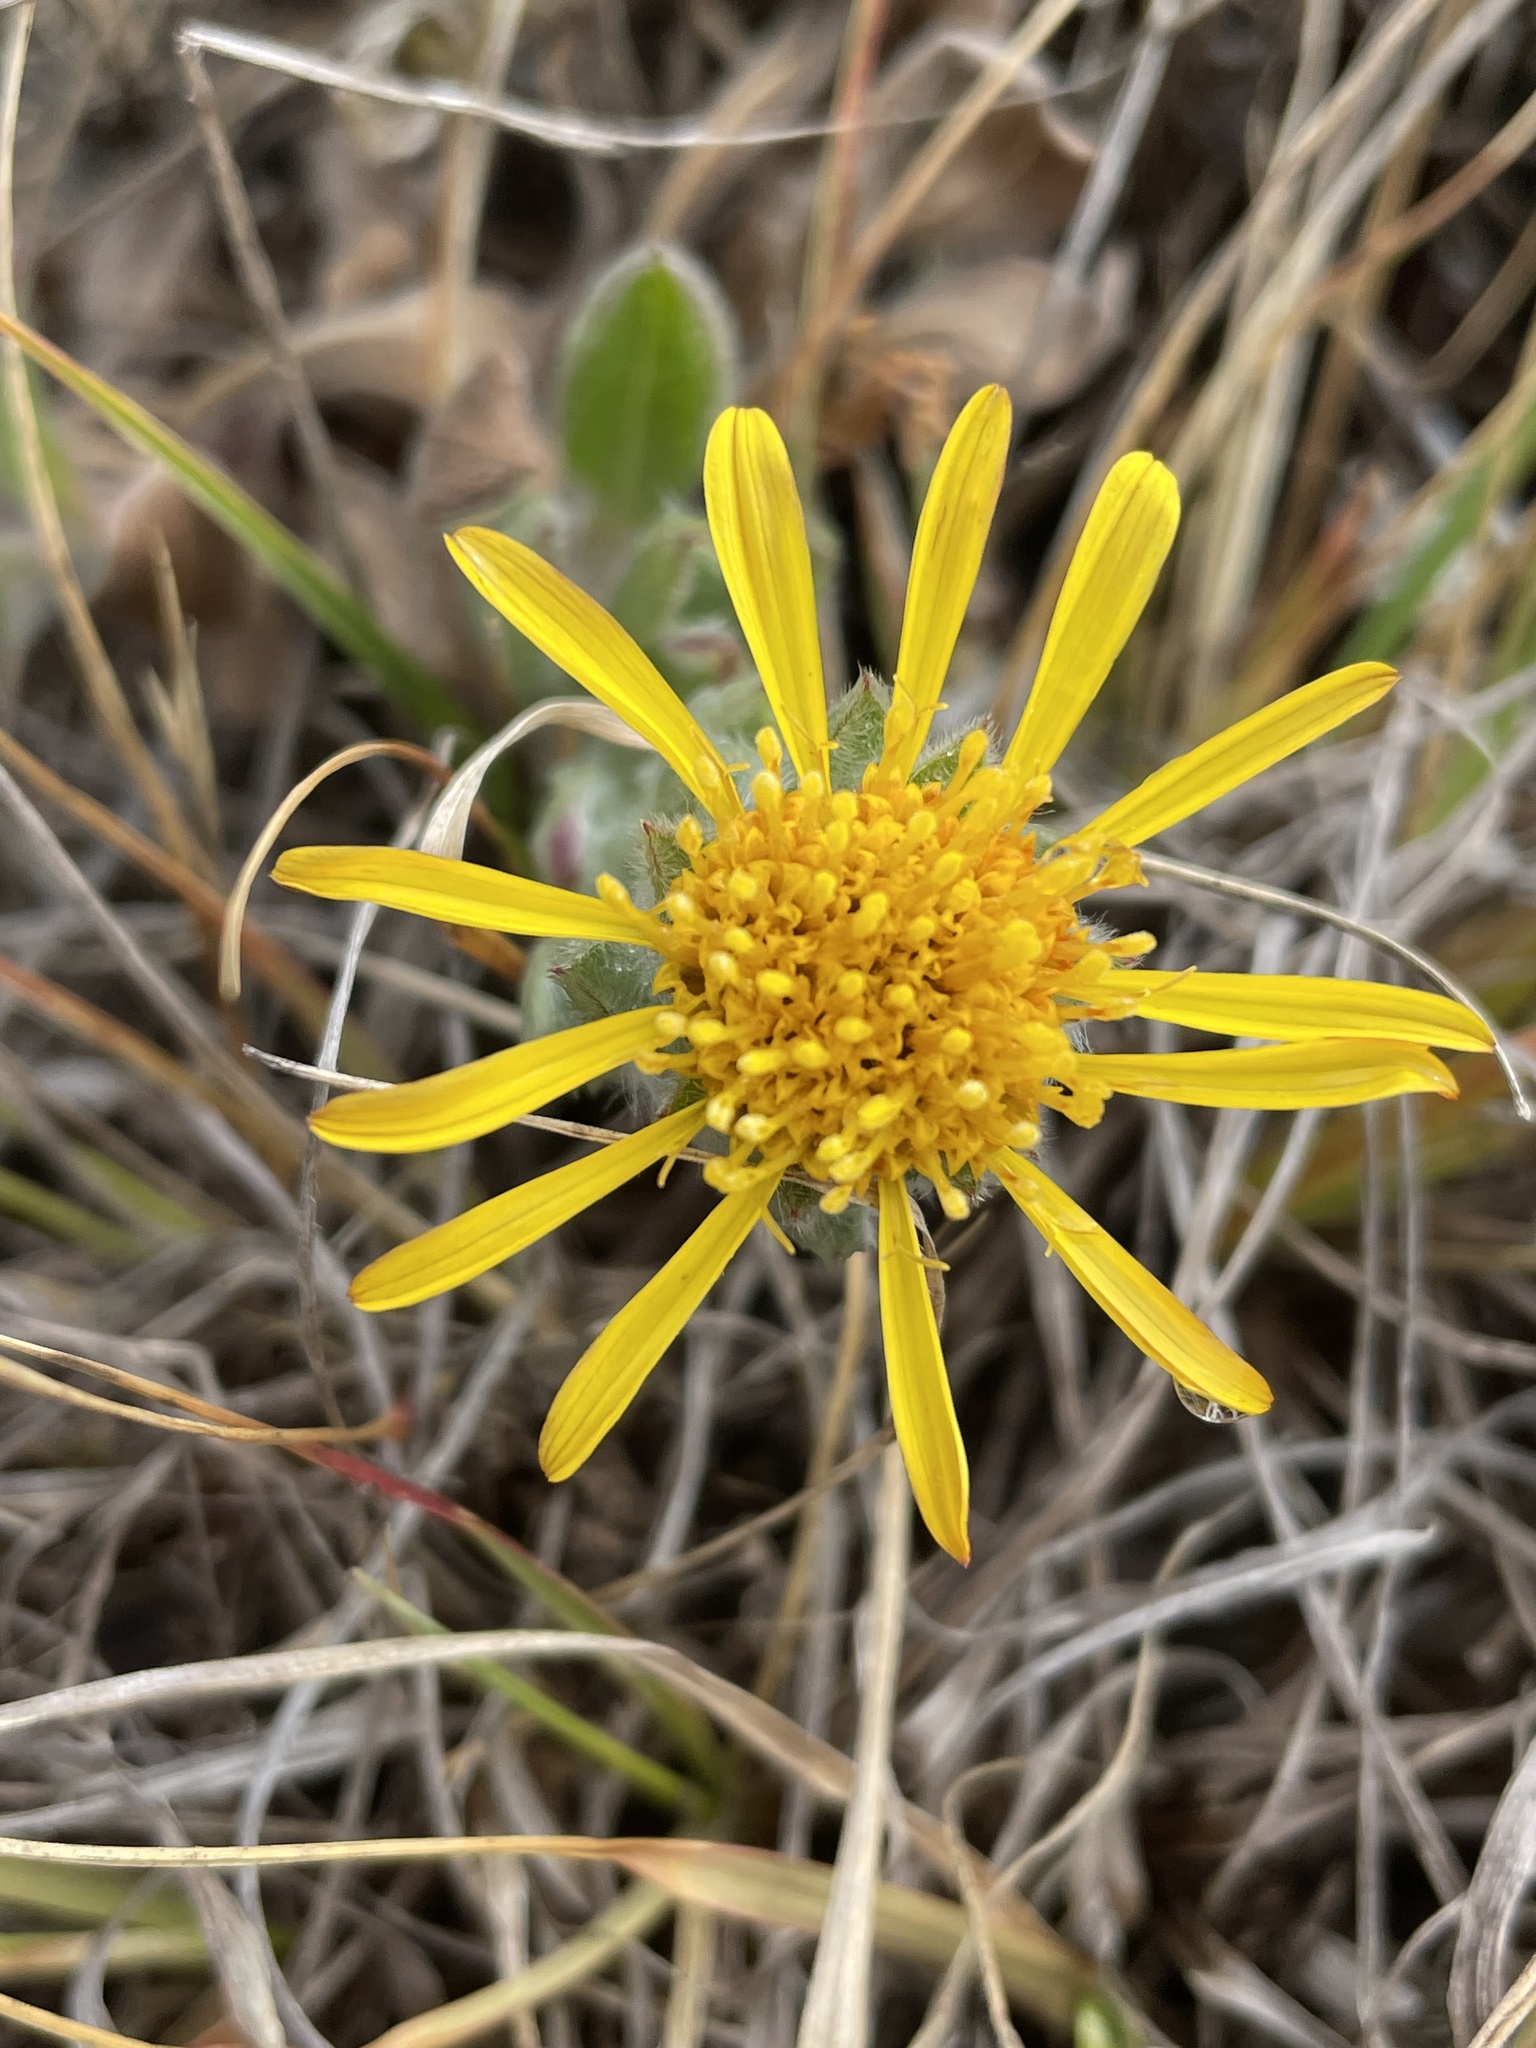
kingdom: Plantae
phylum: Tracheophyta
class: Magnoliopsida
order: Asterales
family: Asteraceae
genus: Heterotheca
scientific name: Heterotheca sessiliflora
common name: Sessile-flower golden-aster
